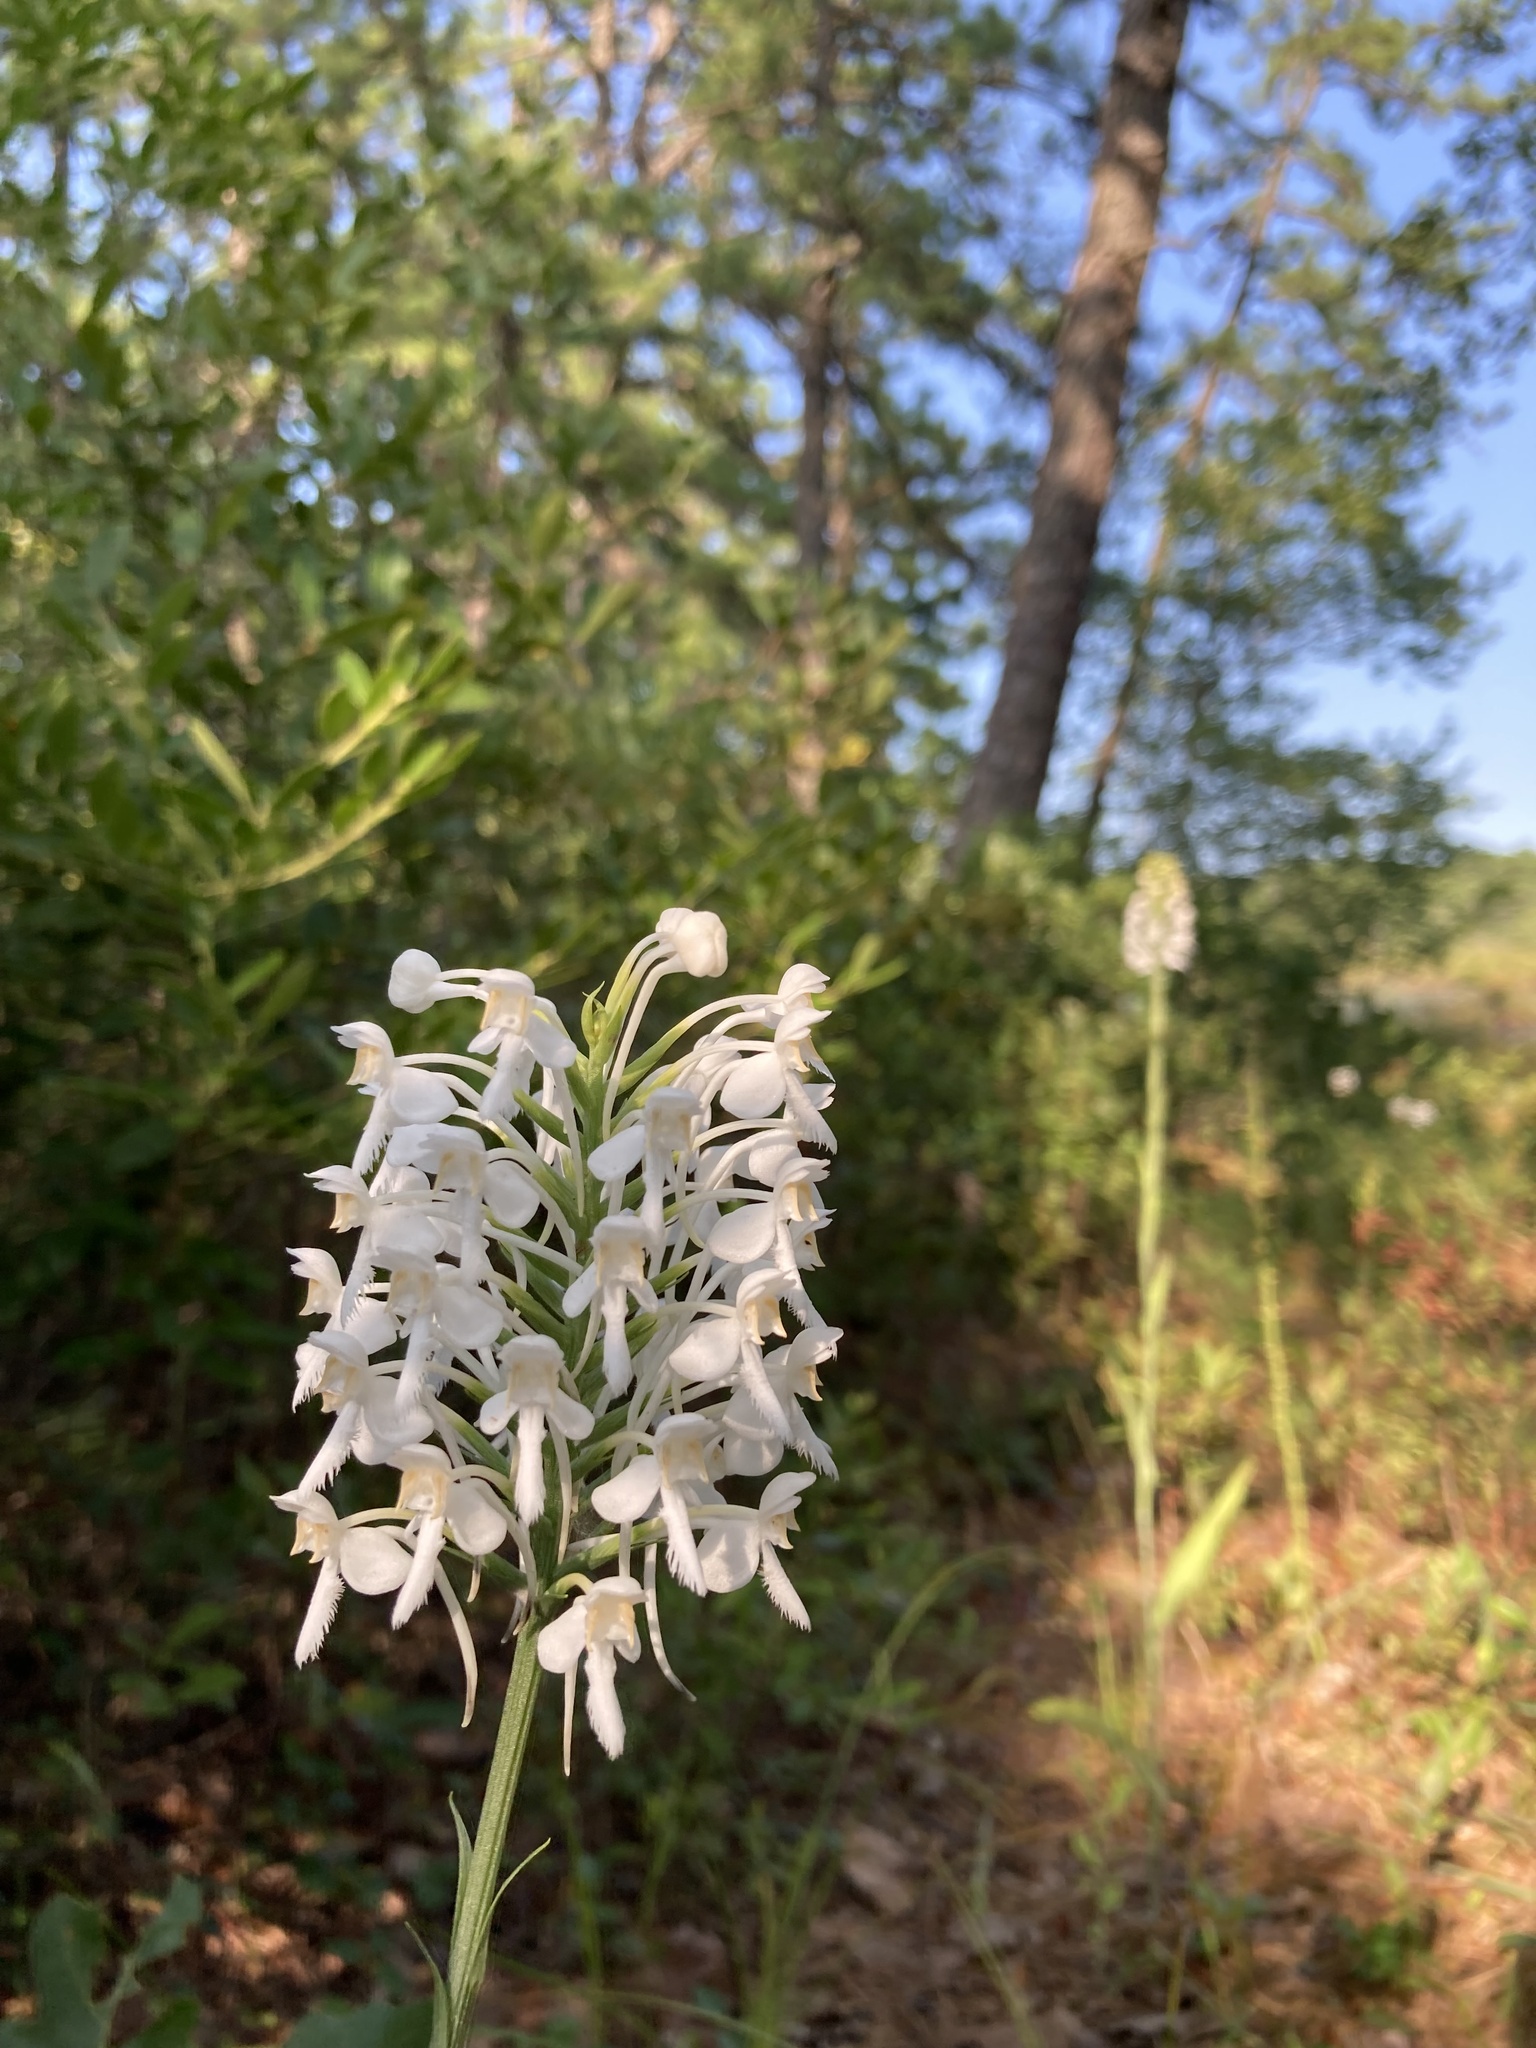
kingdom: Plantae
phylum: Tracheophyta
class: Liliopsida
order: Asparagales
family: Orchidaceae
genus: Platanthera
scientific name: Platanthera blephariglottis
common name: White fringed orchid
